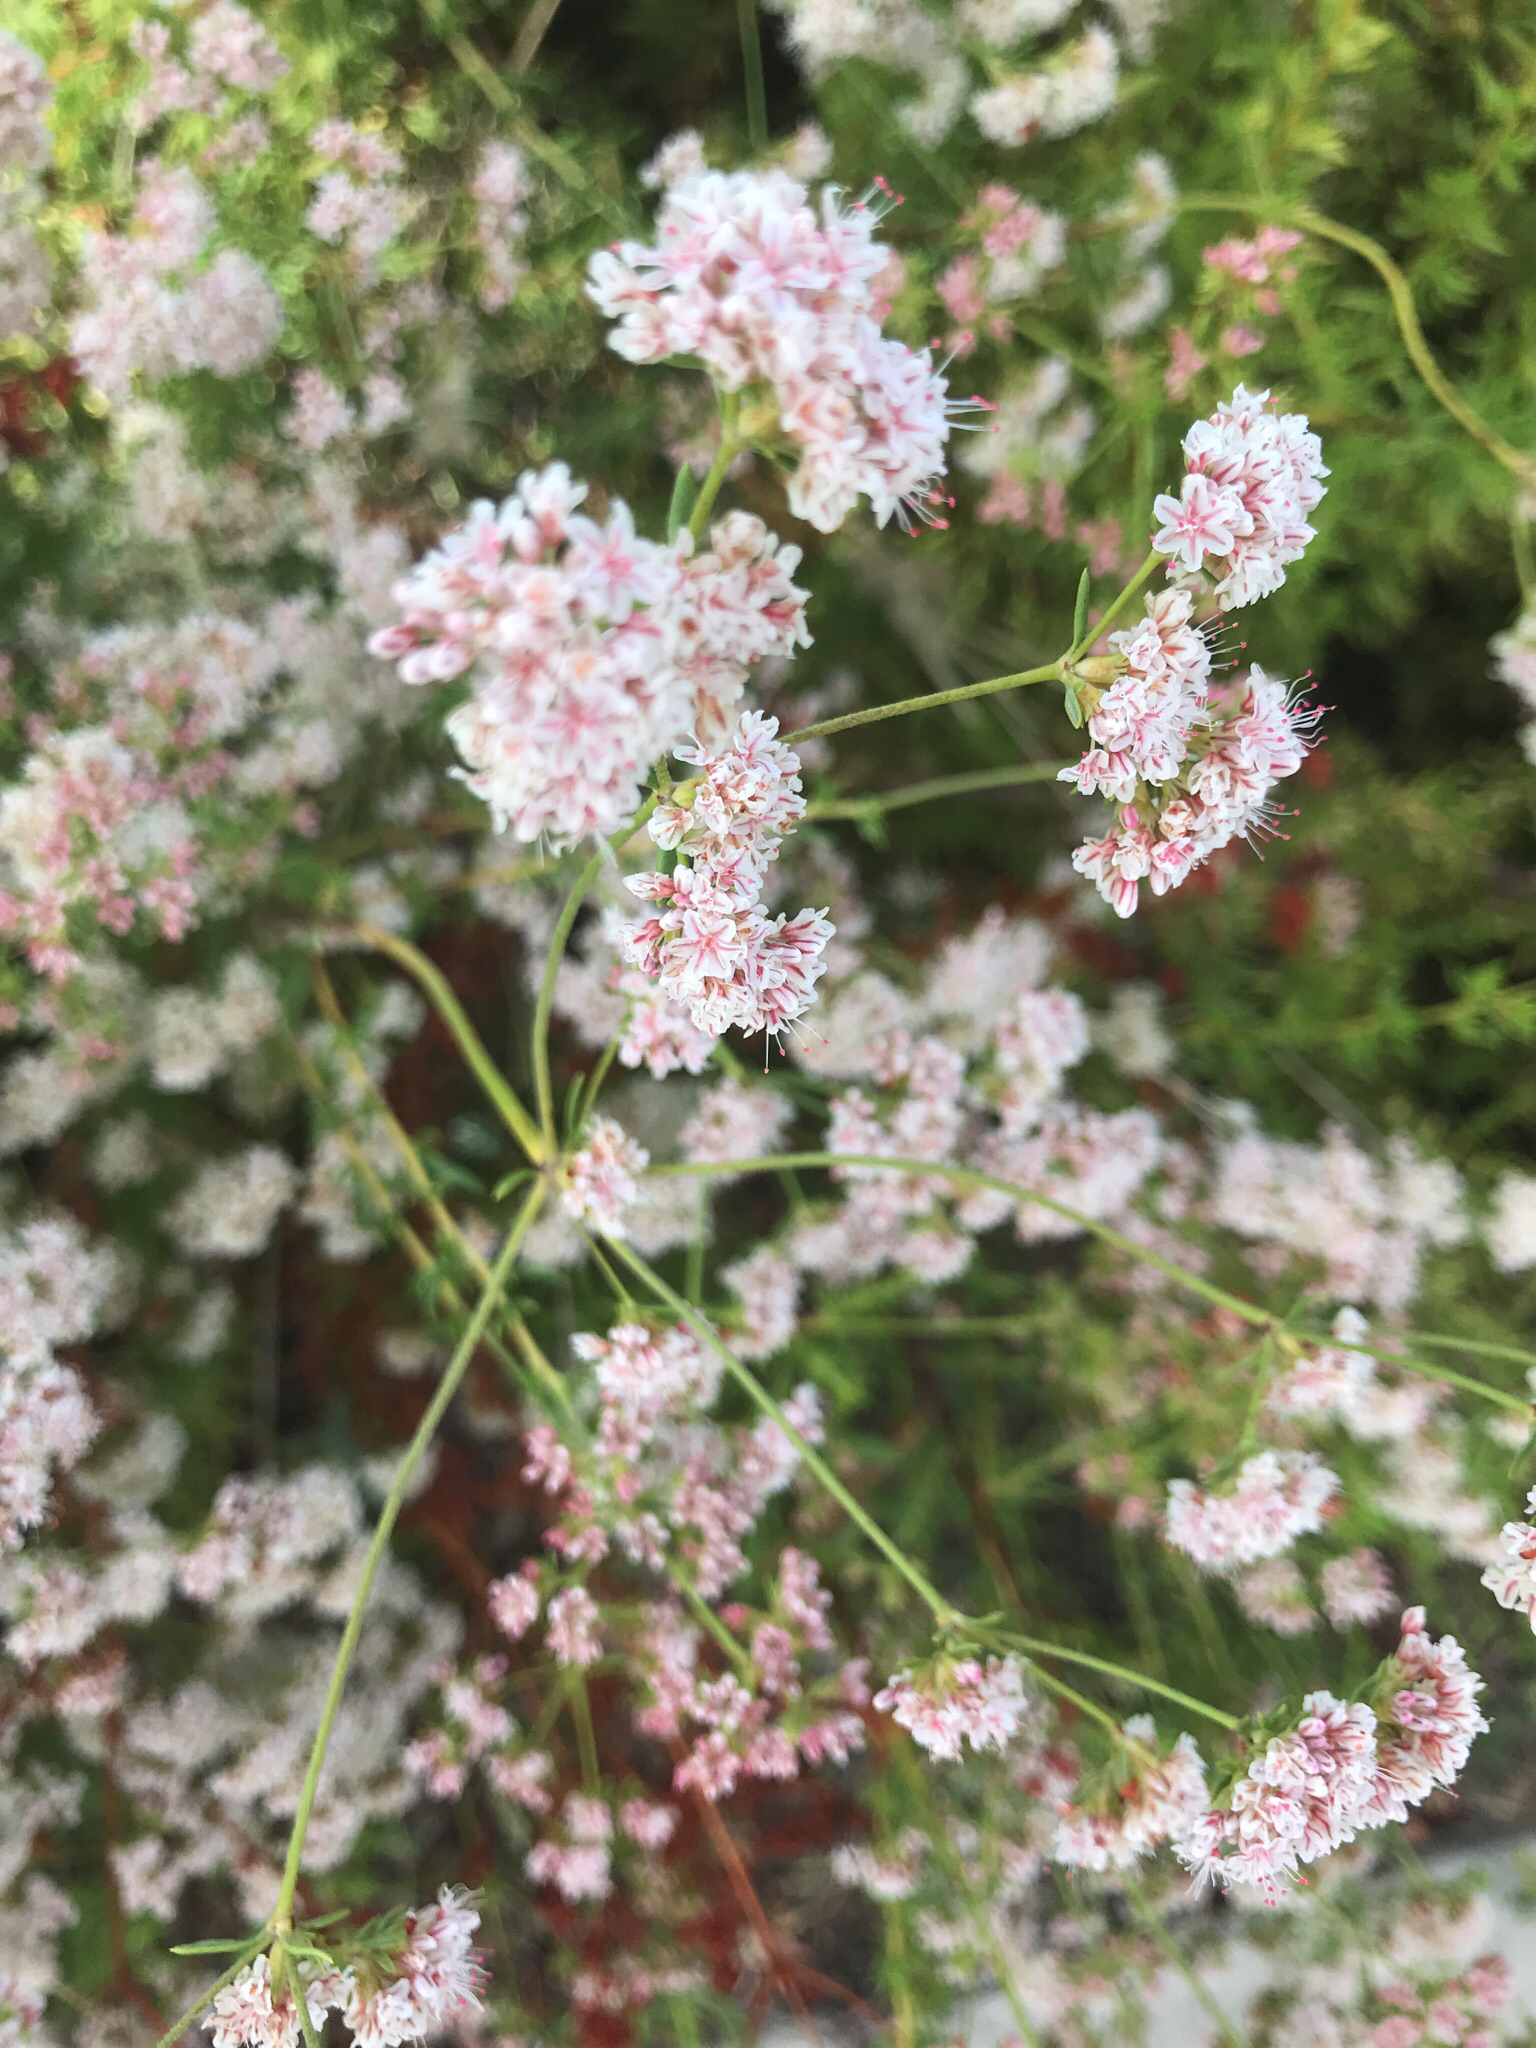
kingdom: Plantae
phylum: Tracheophyta
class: Magnoliopsida
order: Caryophyllales
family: Polygonaceae
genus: Eriogonum
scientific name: Eriogonum fasciculatum
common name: California wild buckwheat
